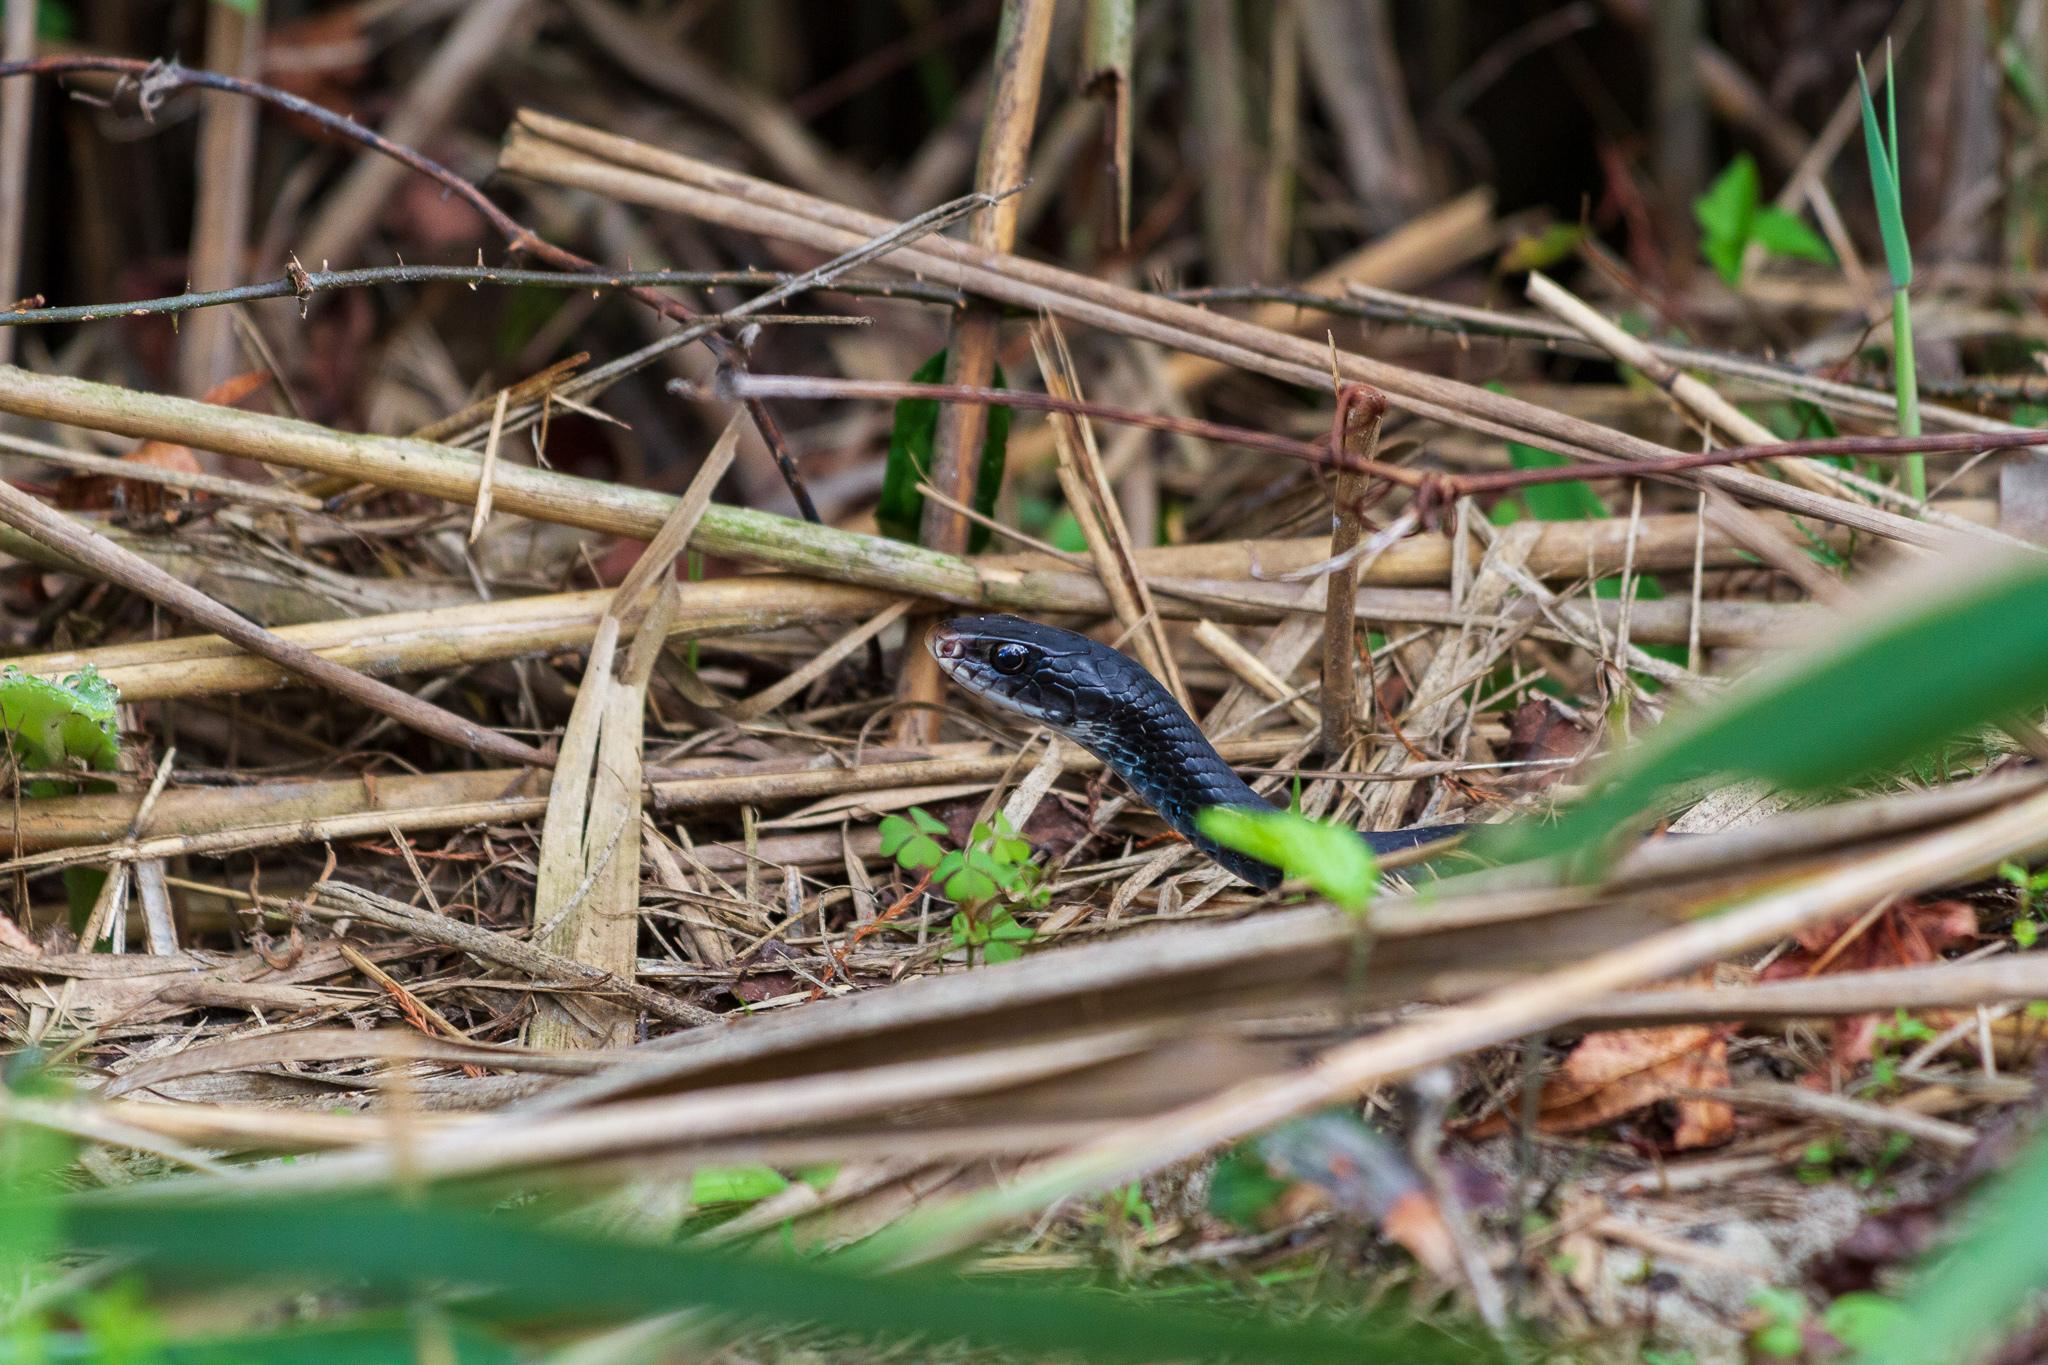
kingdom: Animalia
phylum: Chordata
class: Squamata
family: Colubridae
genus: Coluber
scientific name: Coluber constrictor
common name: Eastern racer
